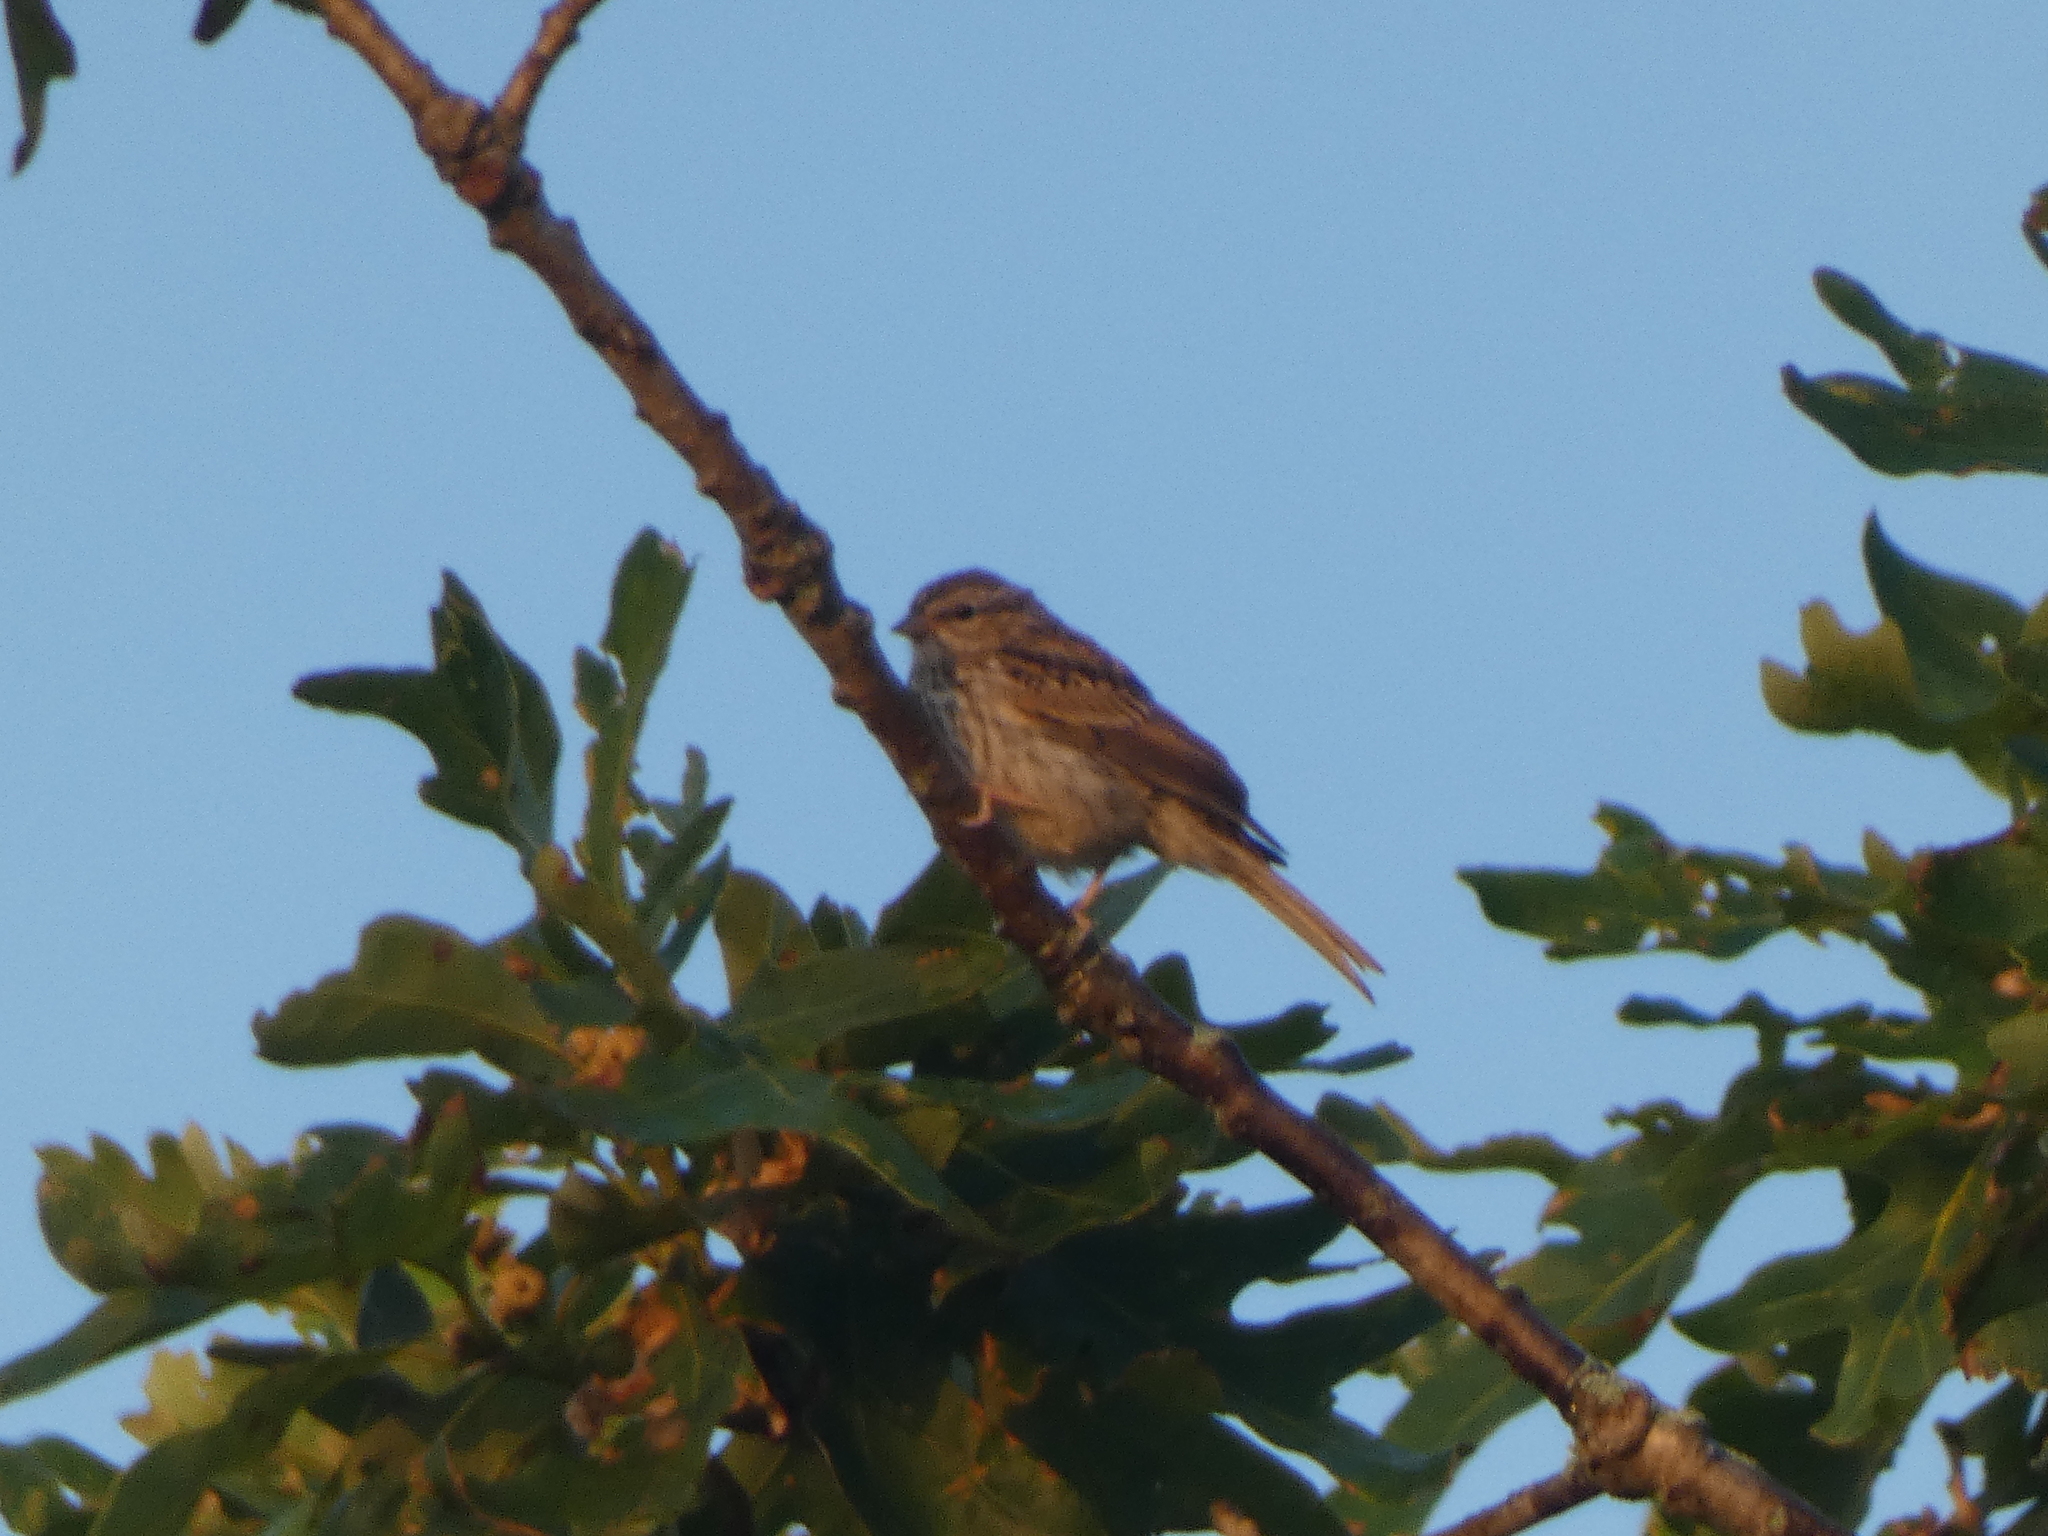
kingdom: Animalia
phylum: Chordata
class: Aves
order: Passeriformes
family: Passerellidae
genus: Spizella
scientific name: Spizella passerina
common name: Chipping sparrow
